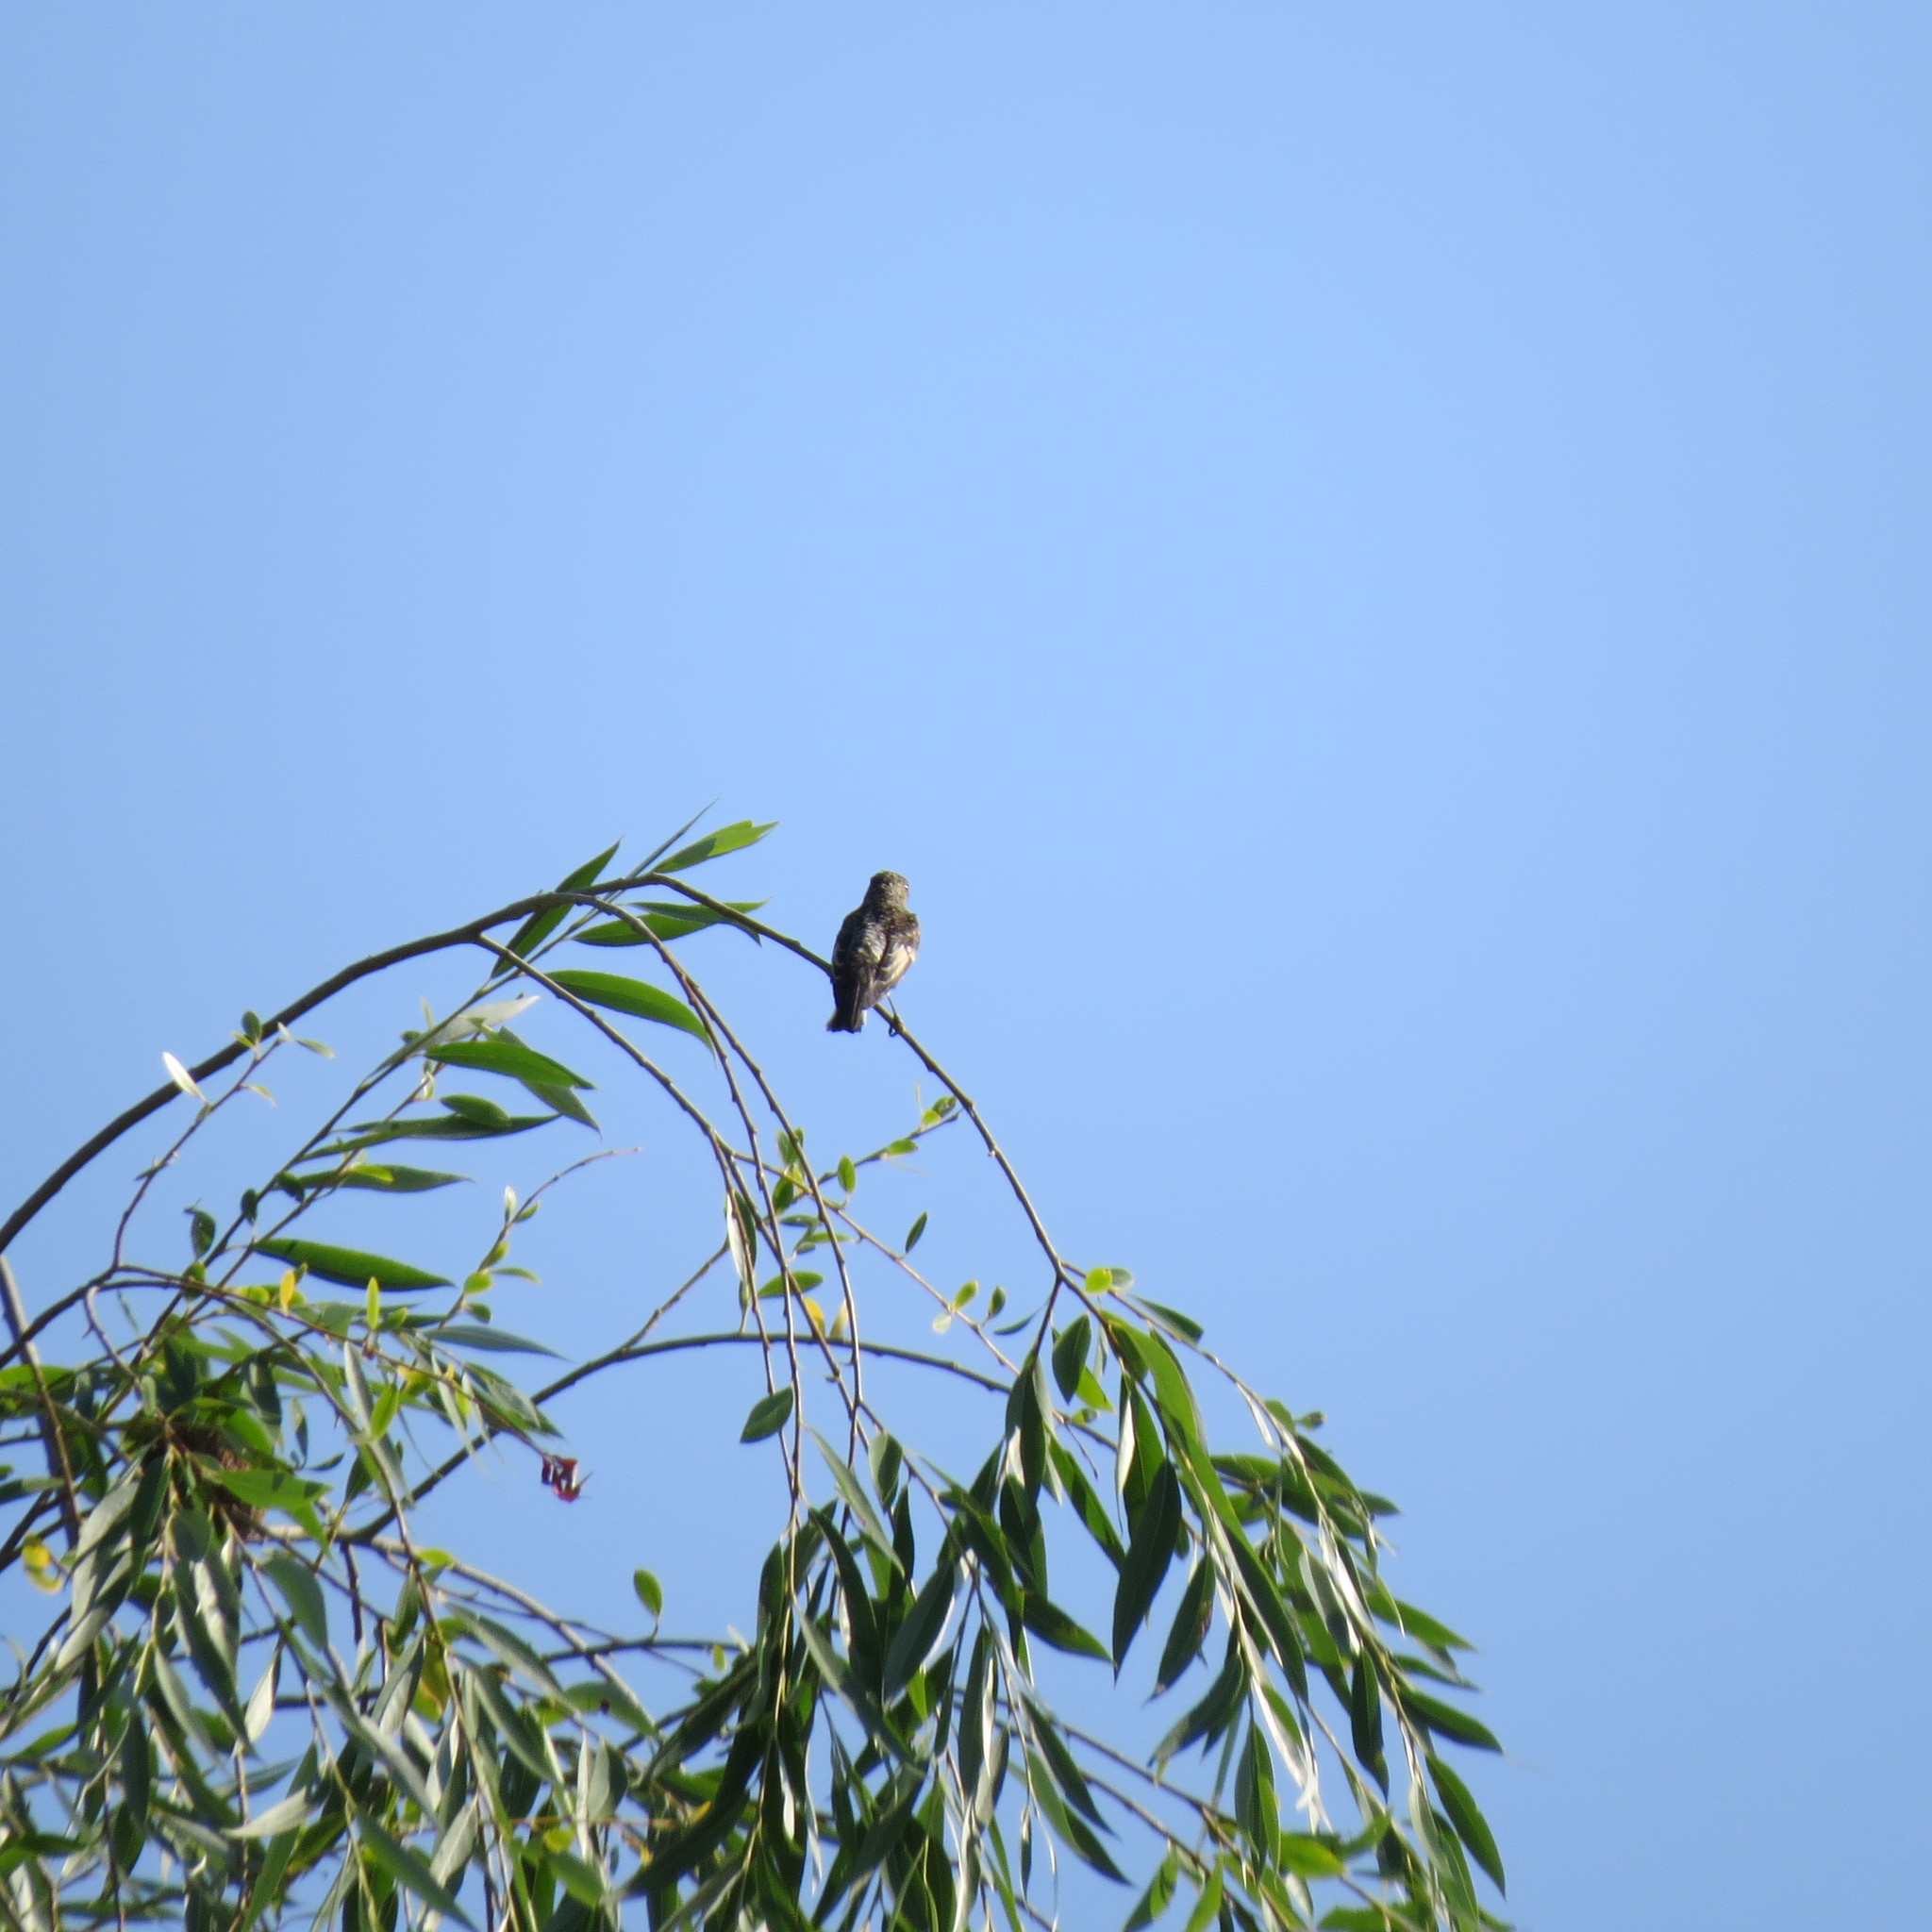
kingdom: Animalia
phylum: Chordata
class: Aves
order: Passeriformes
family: Muscicapidae
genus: Ficedula
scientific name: Ficedula hypoleuca
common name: European pied flycatcher
